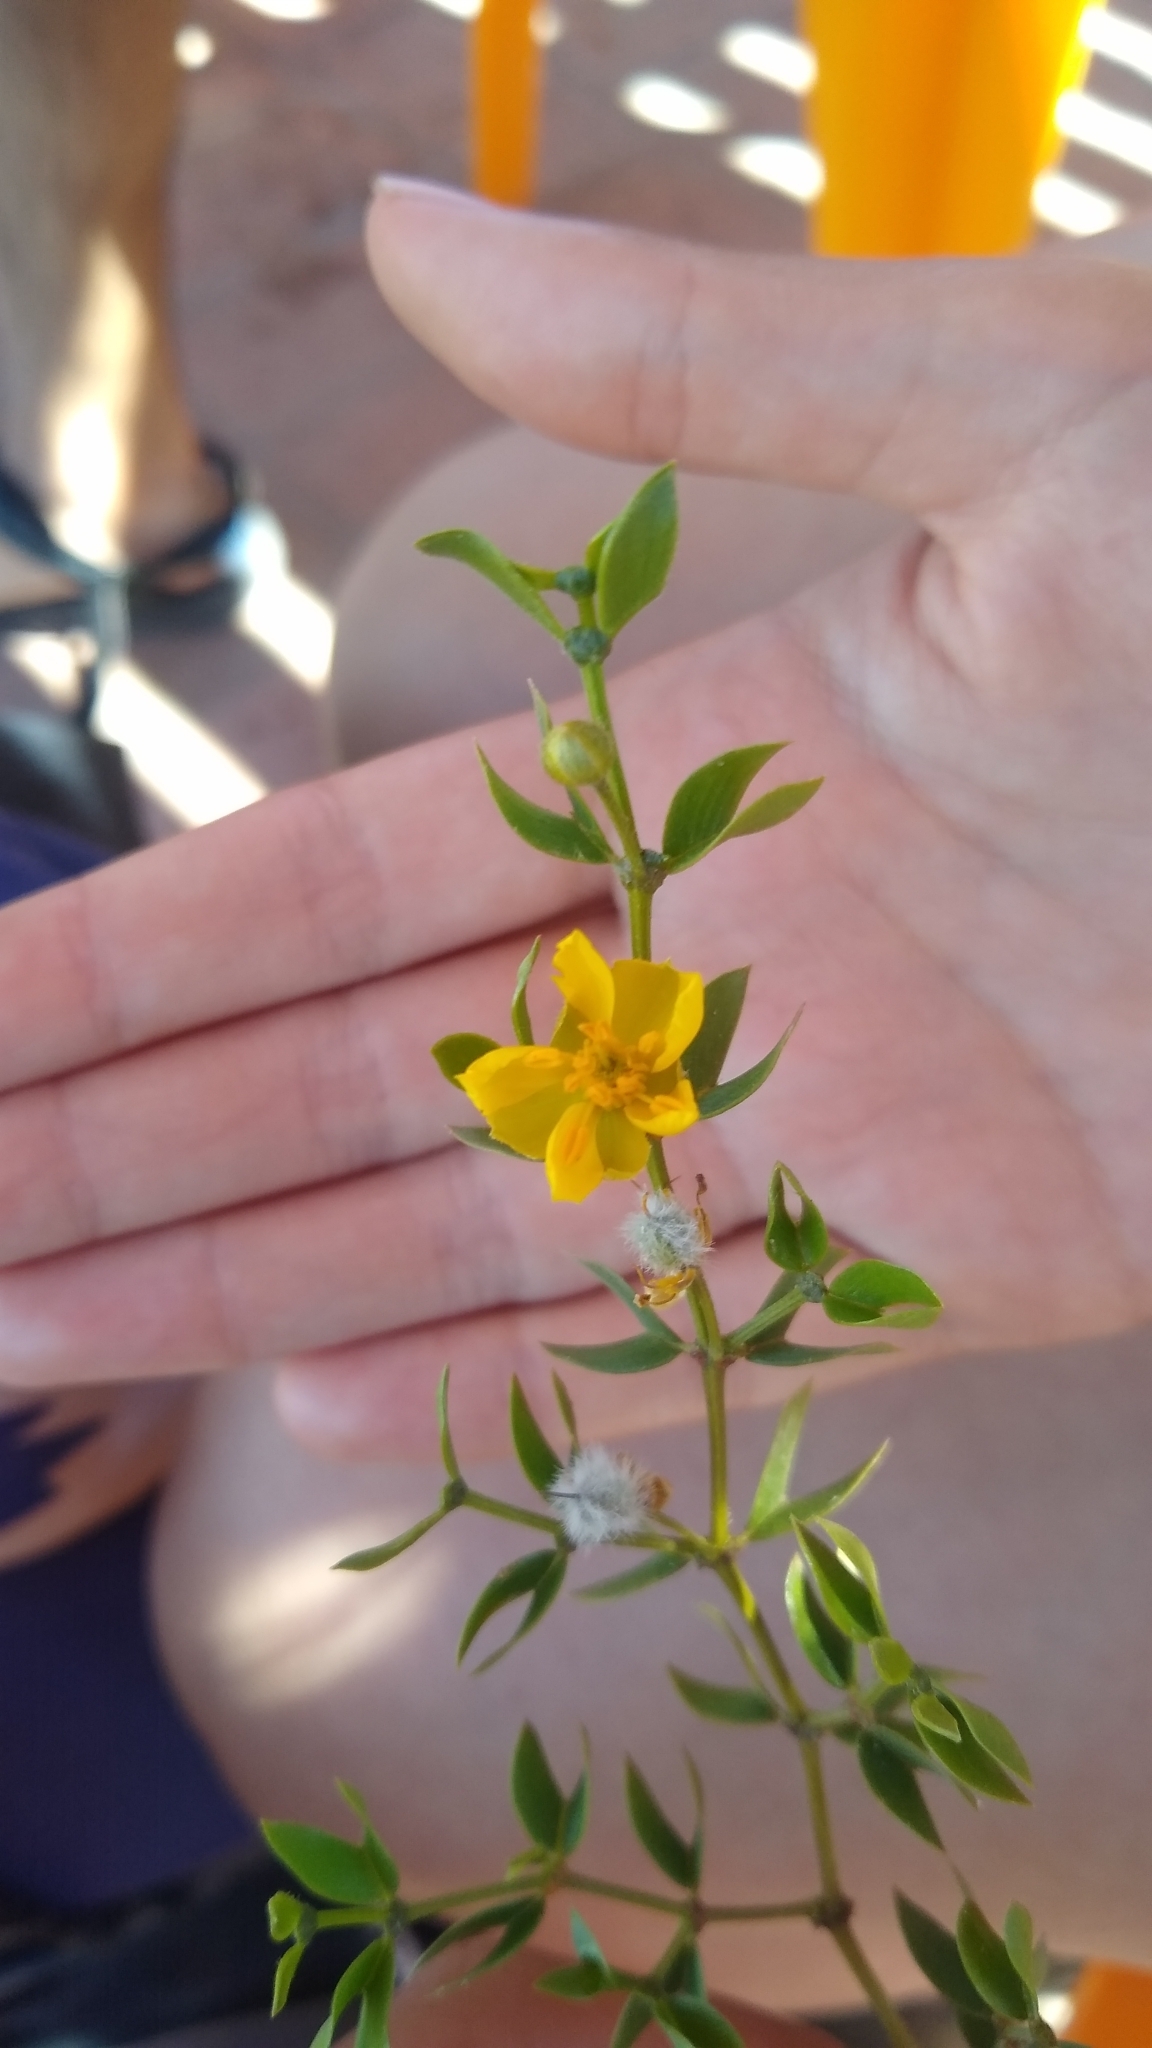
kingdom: Plantae
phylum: Tracheophyta
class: Magnoliopsida
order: Zygophyllales
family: Zygophyllaceae
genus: Larrea
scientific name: Larrea divaricata
